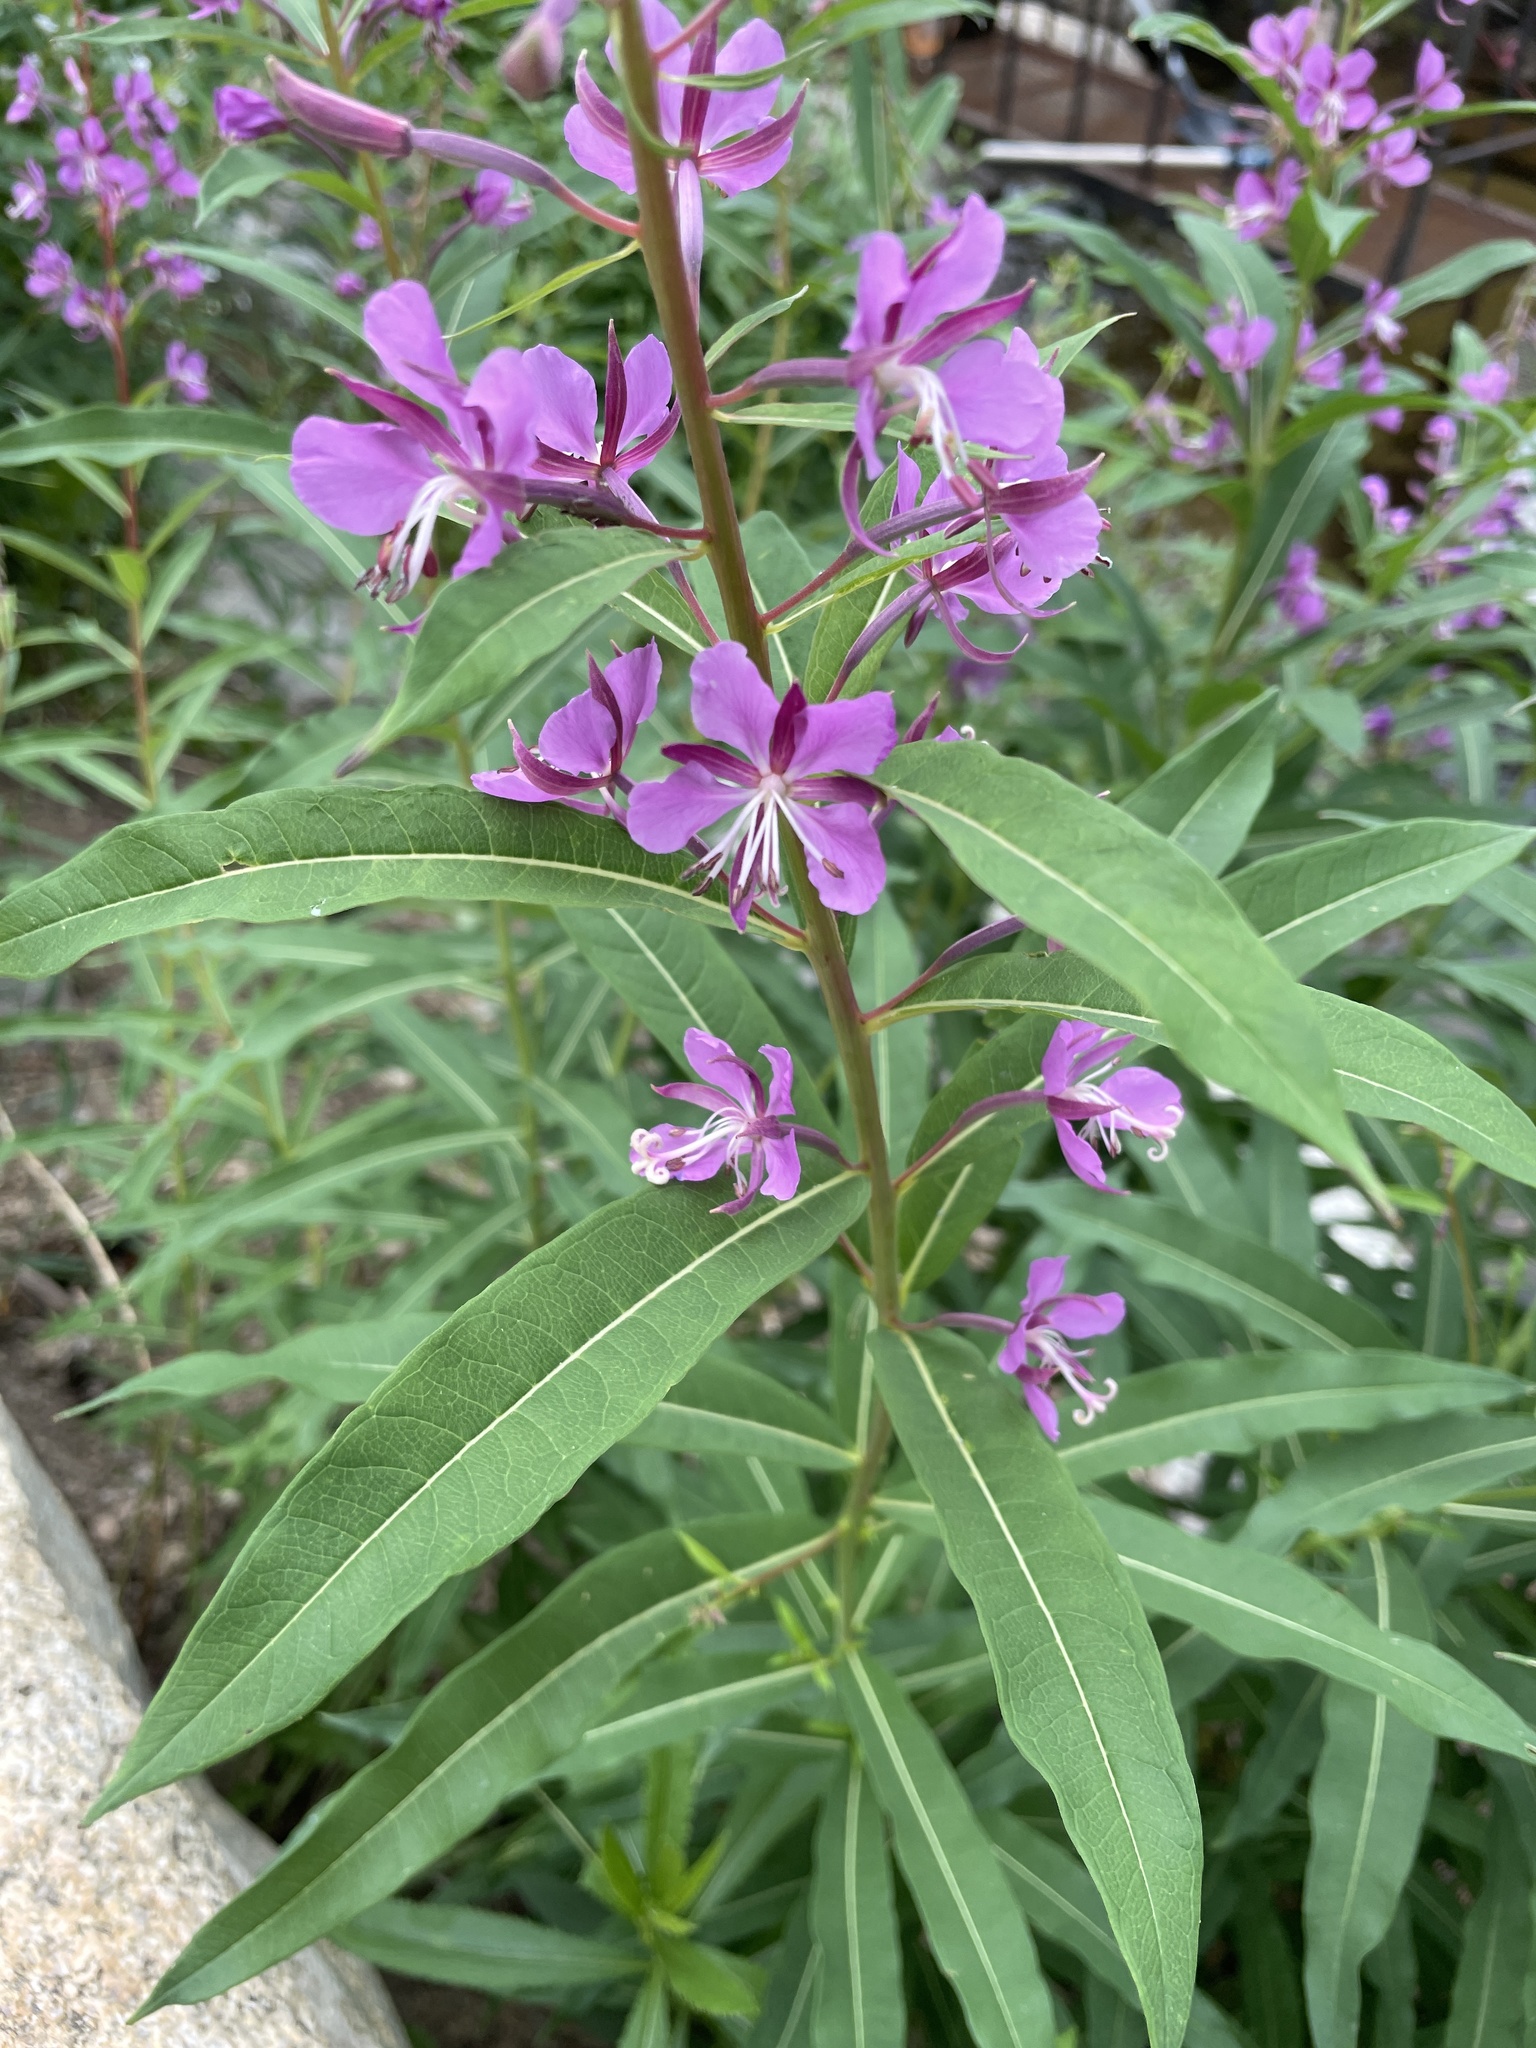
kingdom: Plantae
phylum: Tracheophyta
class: Magnoliopsida
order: Myrtales
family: Onagraceae
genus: Chamaenerion
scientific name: Chamaenerion angustifolium
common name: Fireweed
